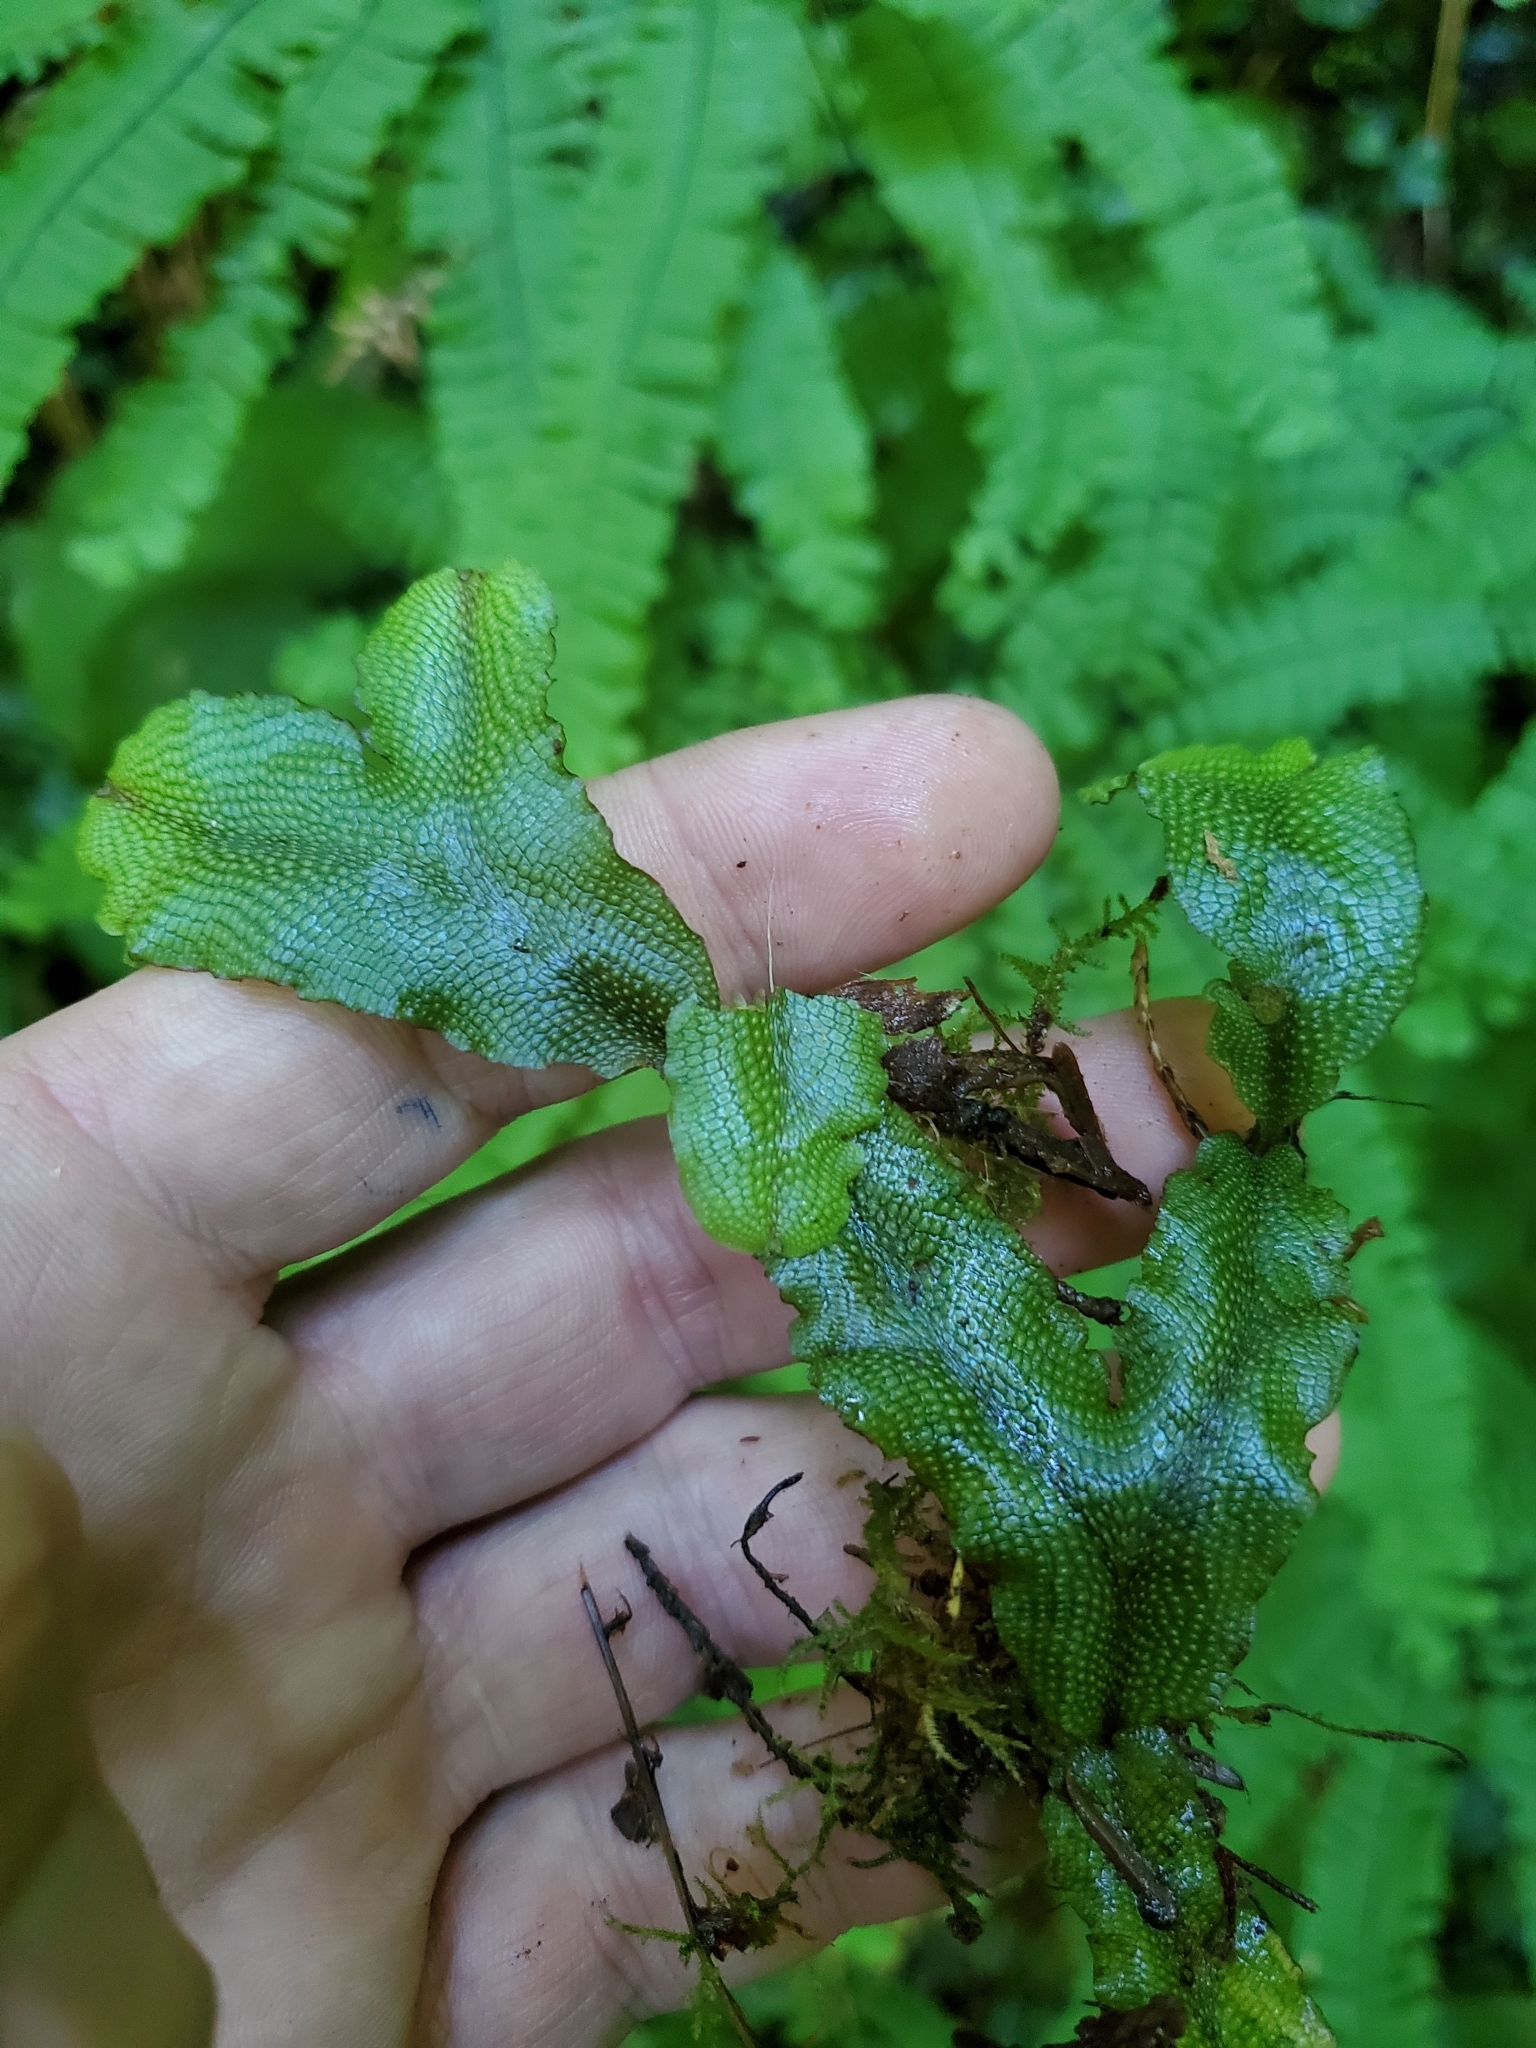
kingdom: Plantae
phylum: Marchantiophyta
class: Marchantiopsida
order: Marchantiales
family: Conocephalaceae
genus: Conocephalum
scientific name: Conocephalum salebrosum
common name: Cat-tongue liverwort
